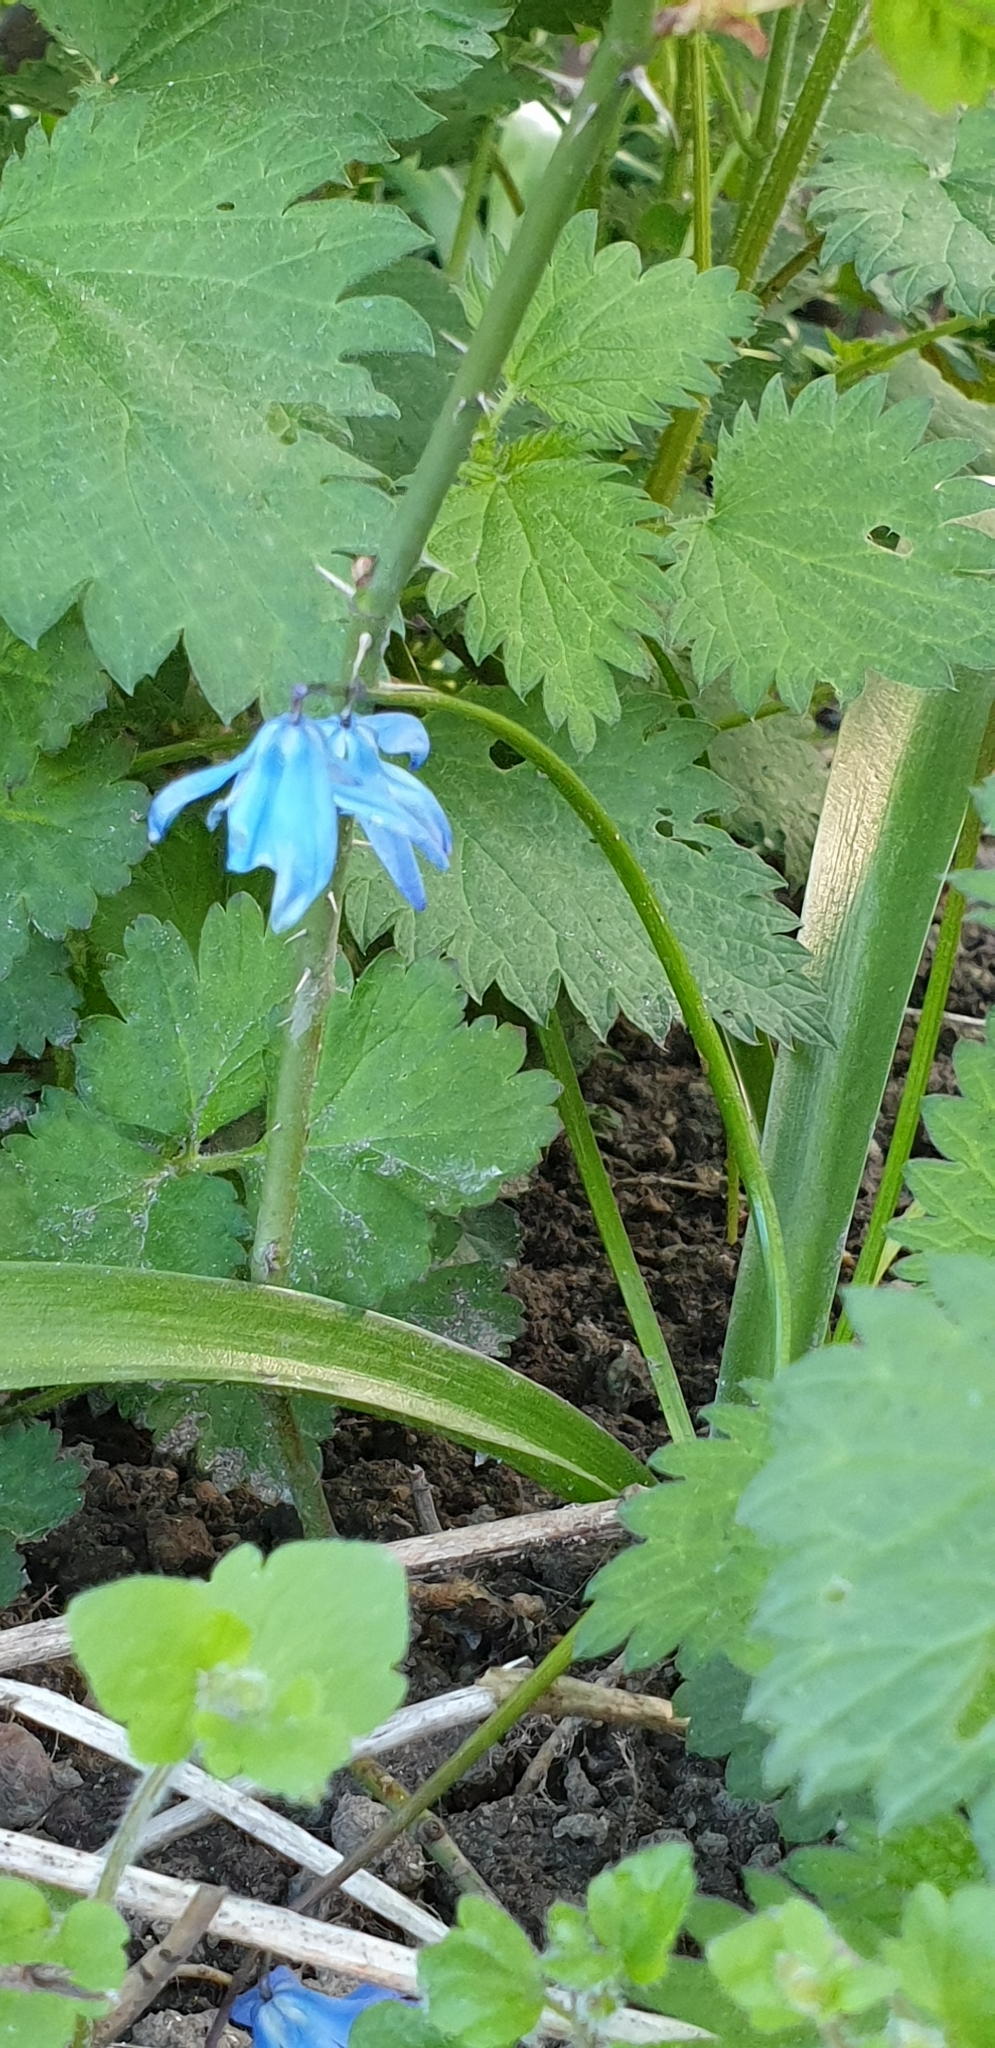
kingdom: Plantae
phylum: Tracheophyta
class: Liliopsida
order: Asparagales
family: Asparagaceae
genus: Scilla
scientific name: Scilla siberica
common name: Siberian squill
